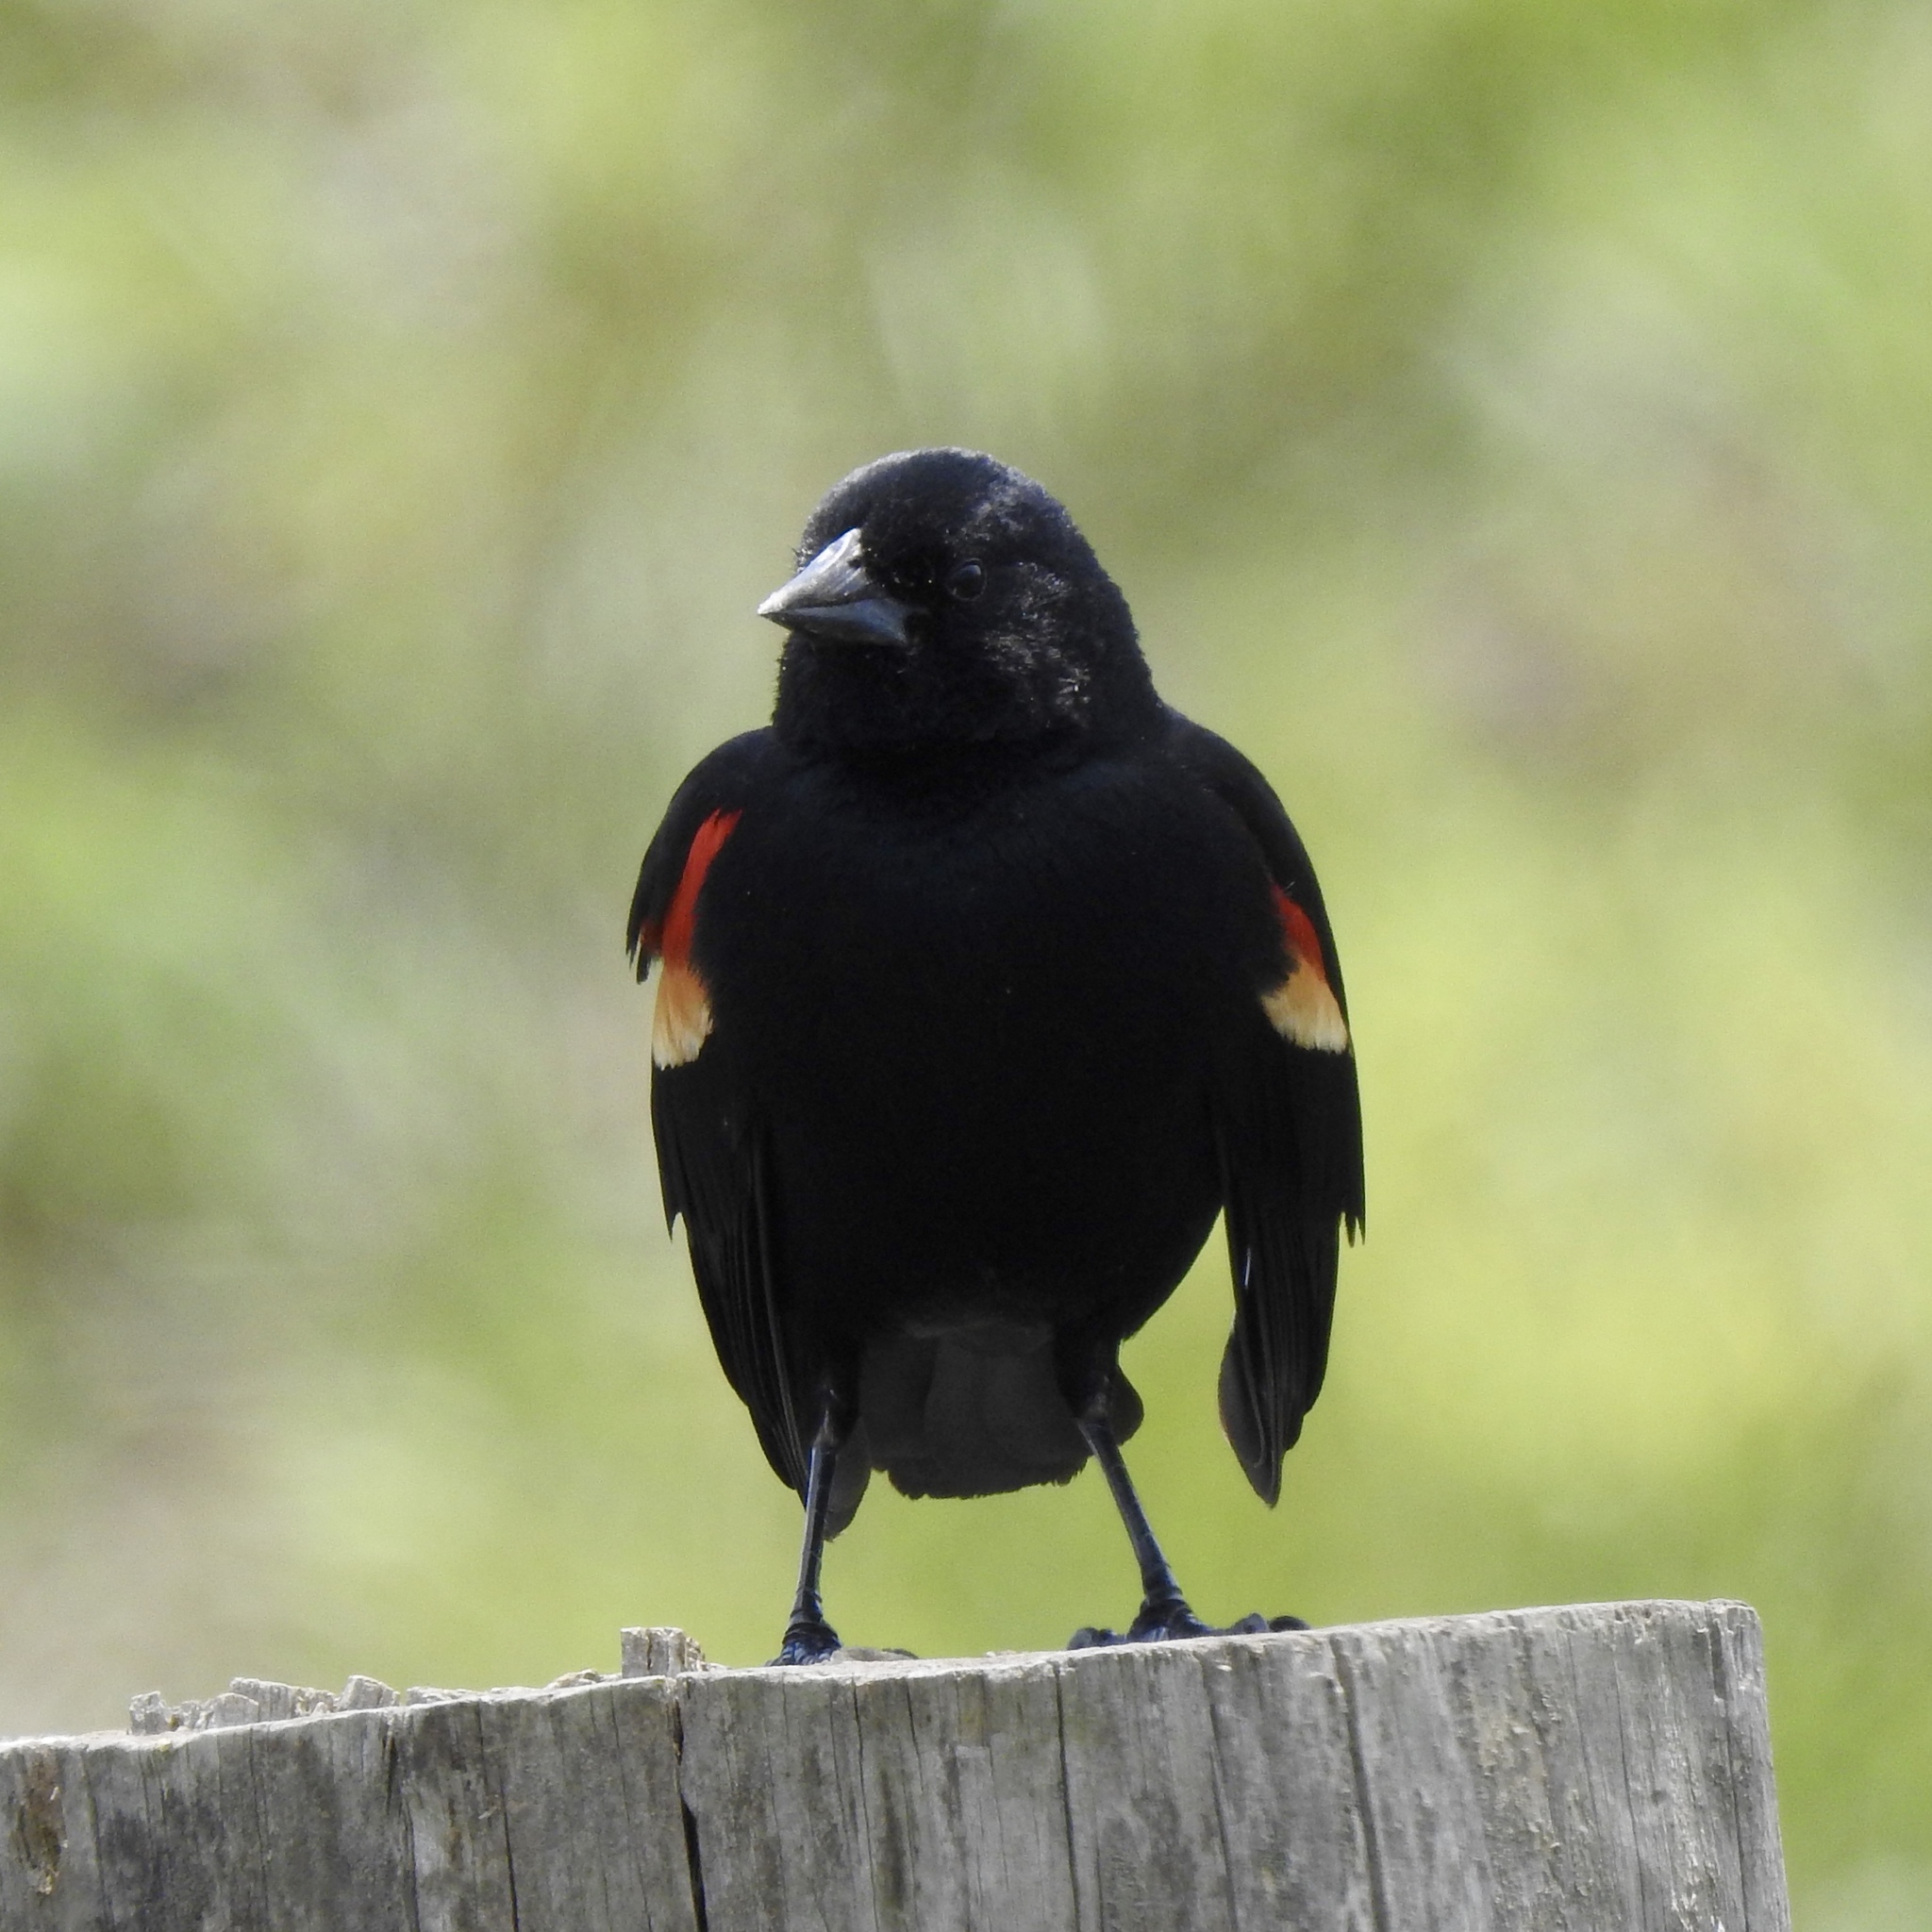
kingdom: Animalia
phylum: Chordata
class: Aves
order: Passeriformes
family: Icteridae
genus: Agelaius
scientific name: Agelaius phoeniceus
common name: Red-winged blackbird
